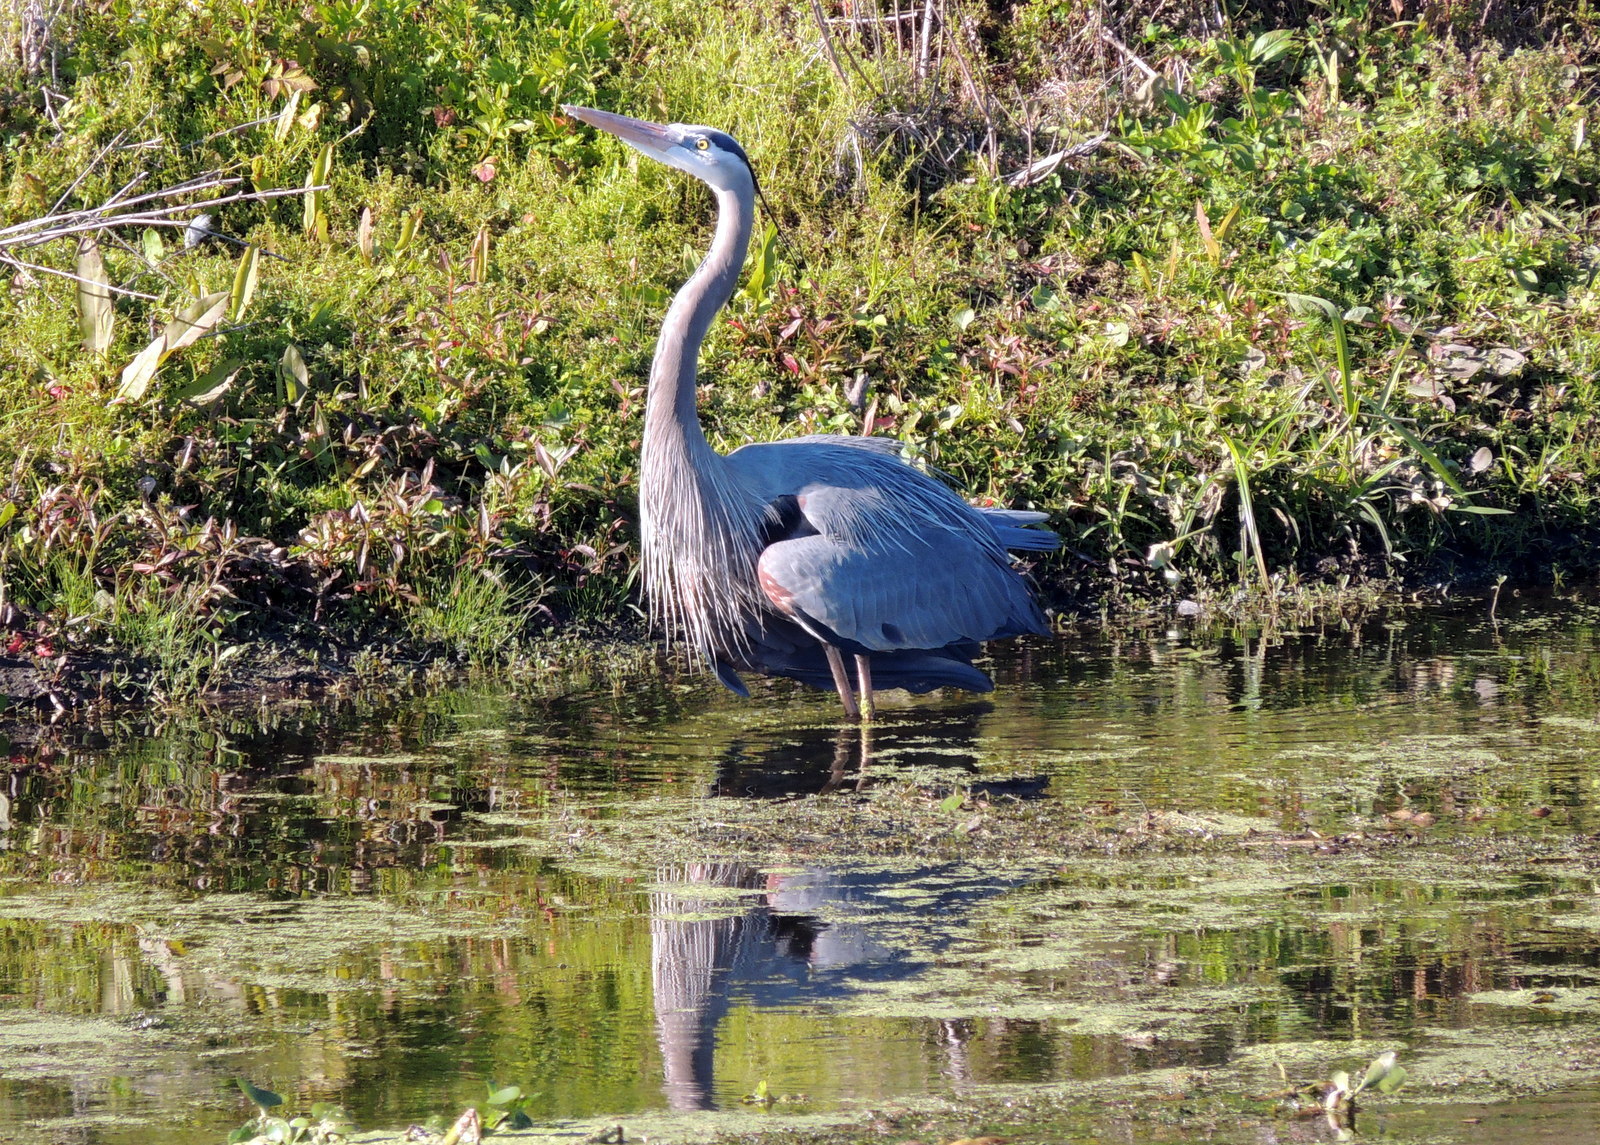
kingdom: Animalia
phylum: Chordata
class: Aves
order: Pelecaniformes
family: Ardeidae
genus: Ardea
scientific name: Ardea herodias
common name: Great blue heron
